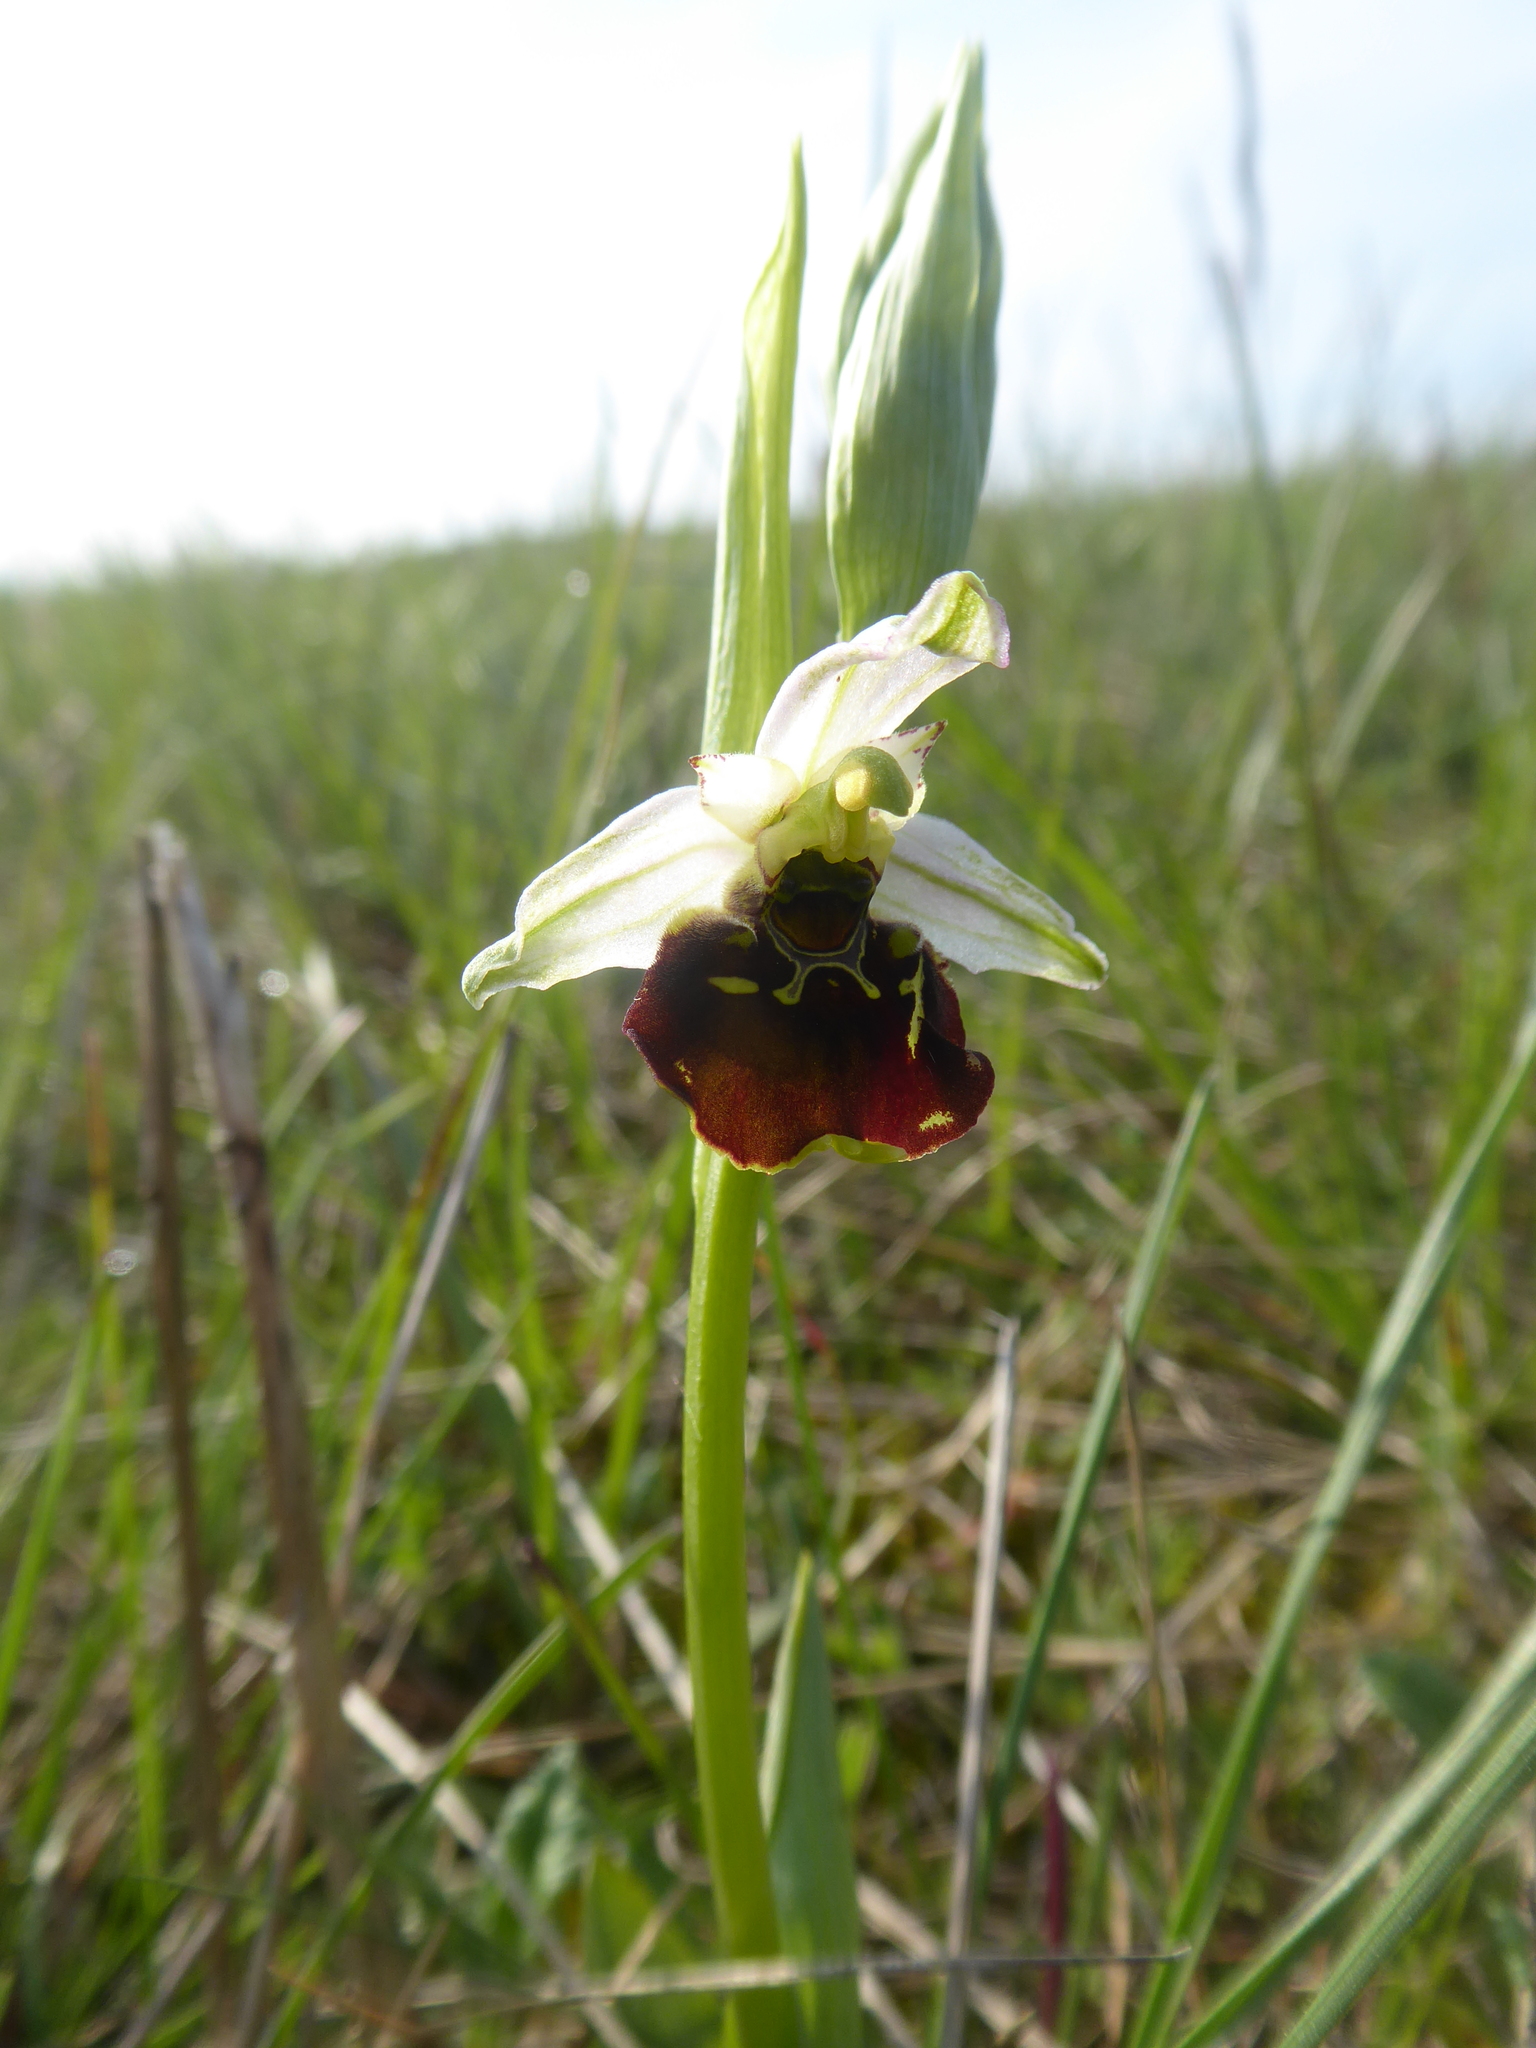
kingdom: Plantae
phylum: Tracheophyta
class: Liliopsida
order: Asparagales
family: Orchidaceae
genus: Ophrys
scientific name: Ophrys holosericea
